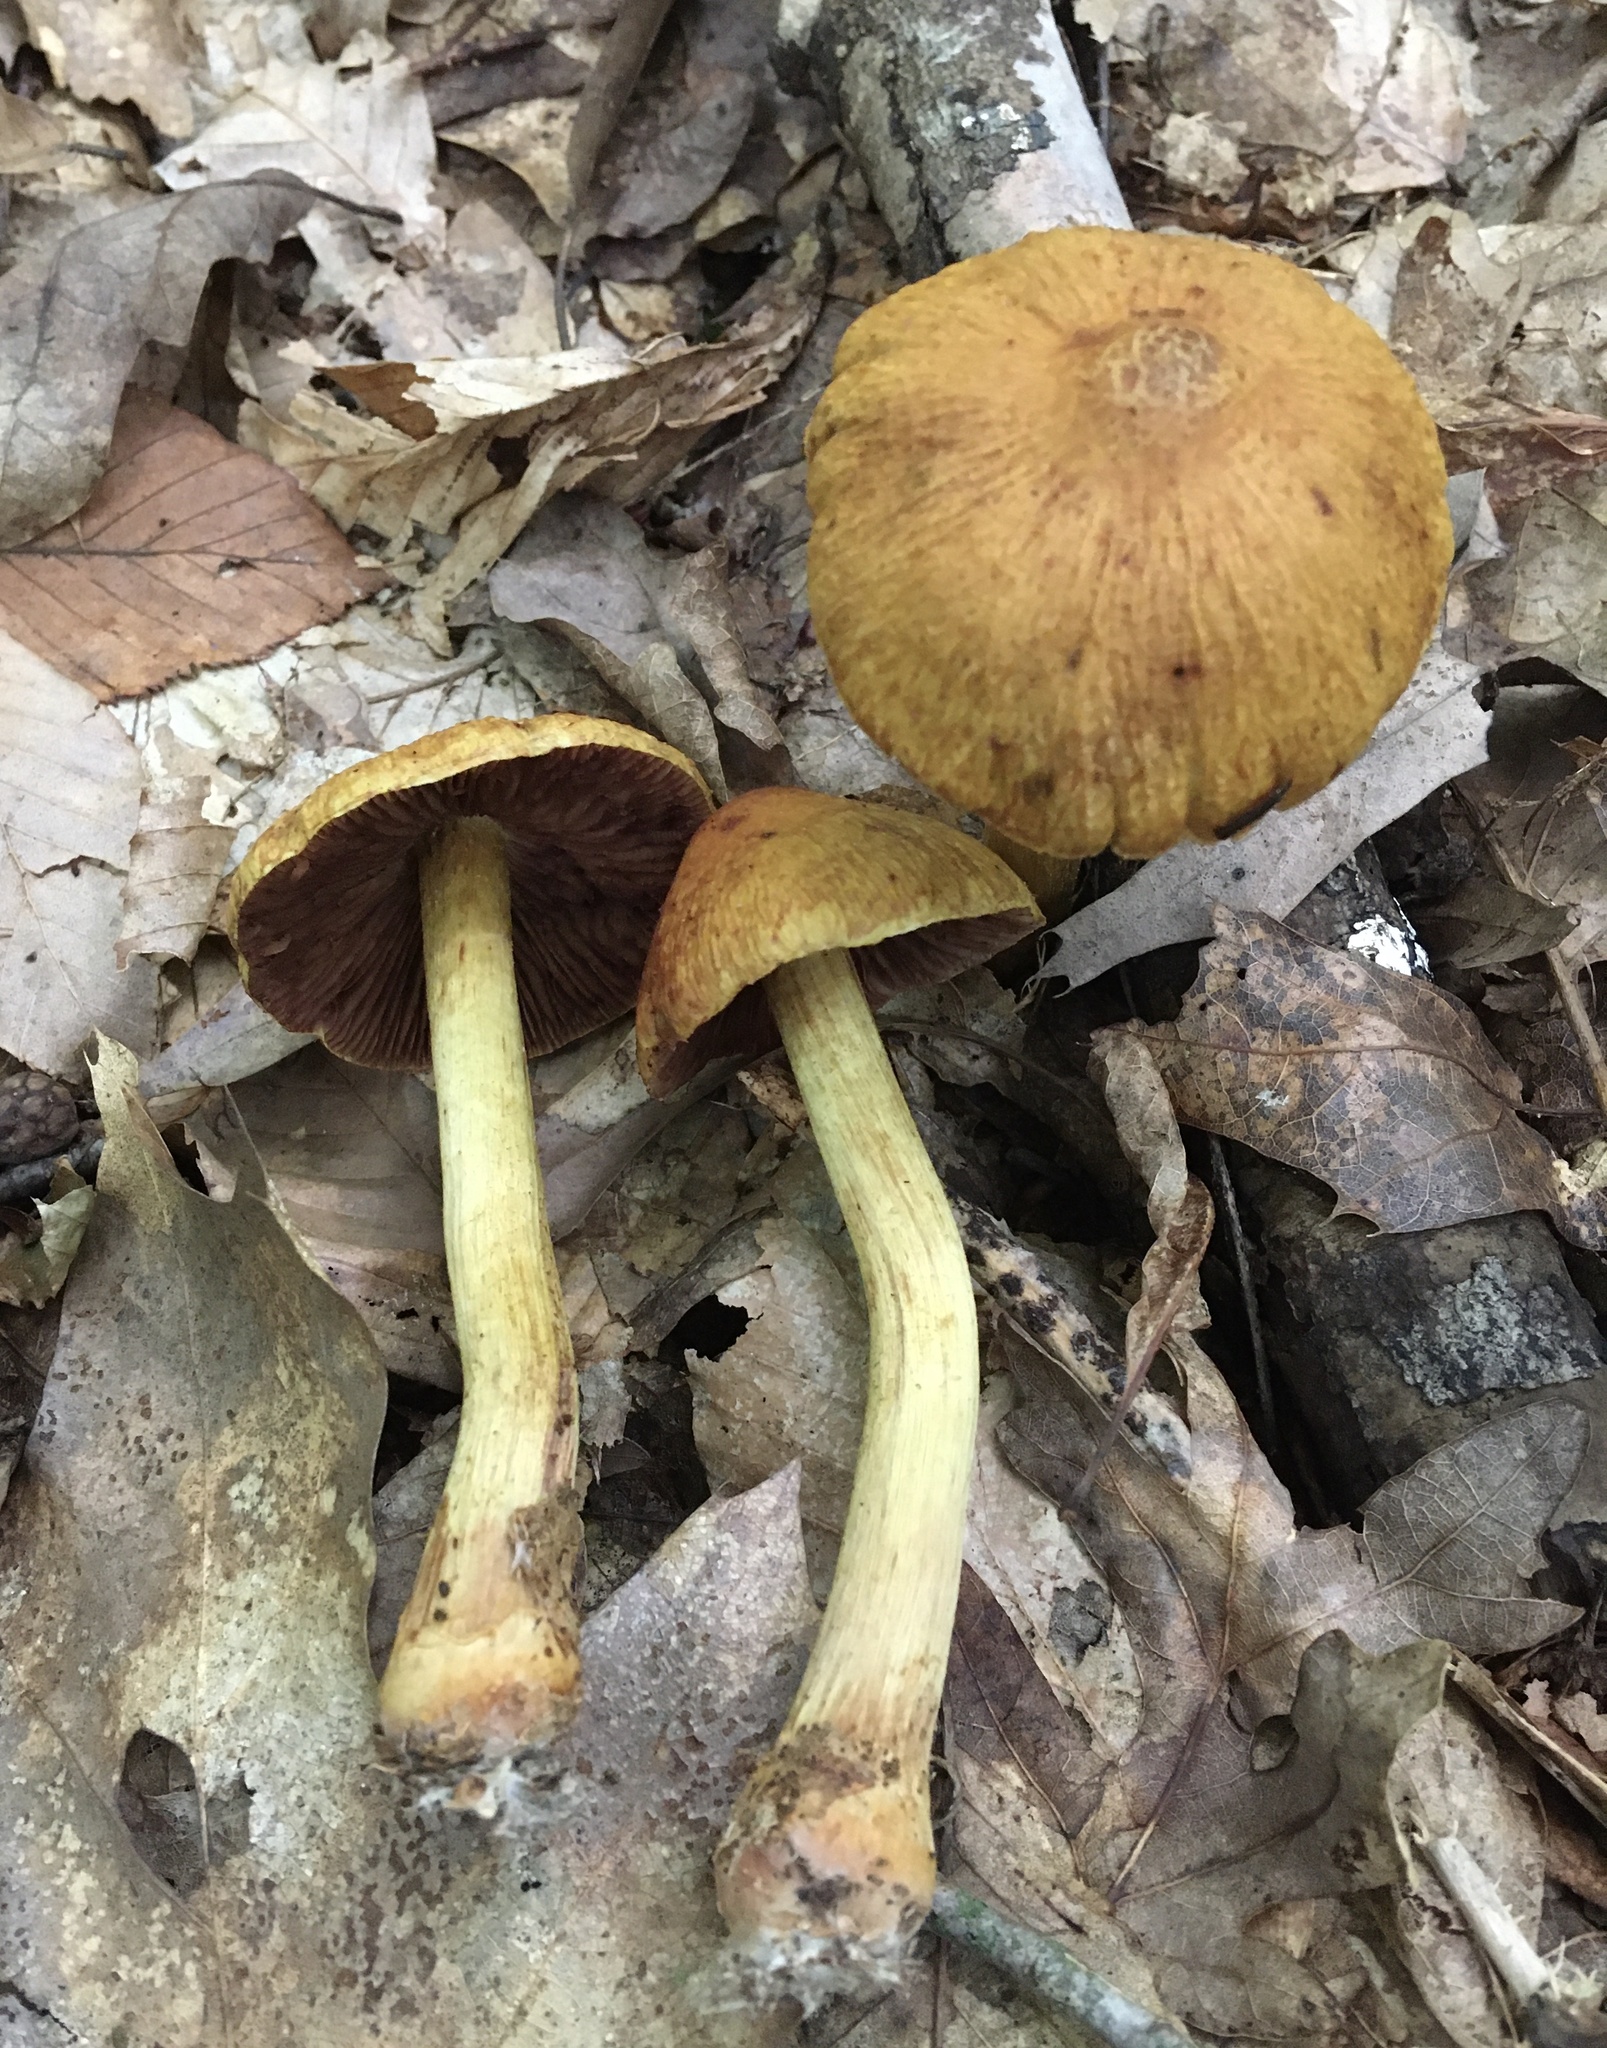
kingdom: Fungi
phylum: Basidiomycota
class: Agaricomycetes
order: Agaricales
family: Cortinariaceae
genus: Cortinarius
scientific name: Cortinarius corrugatus
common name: Wrinkled cortinarius
